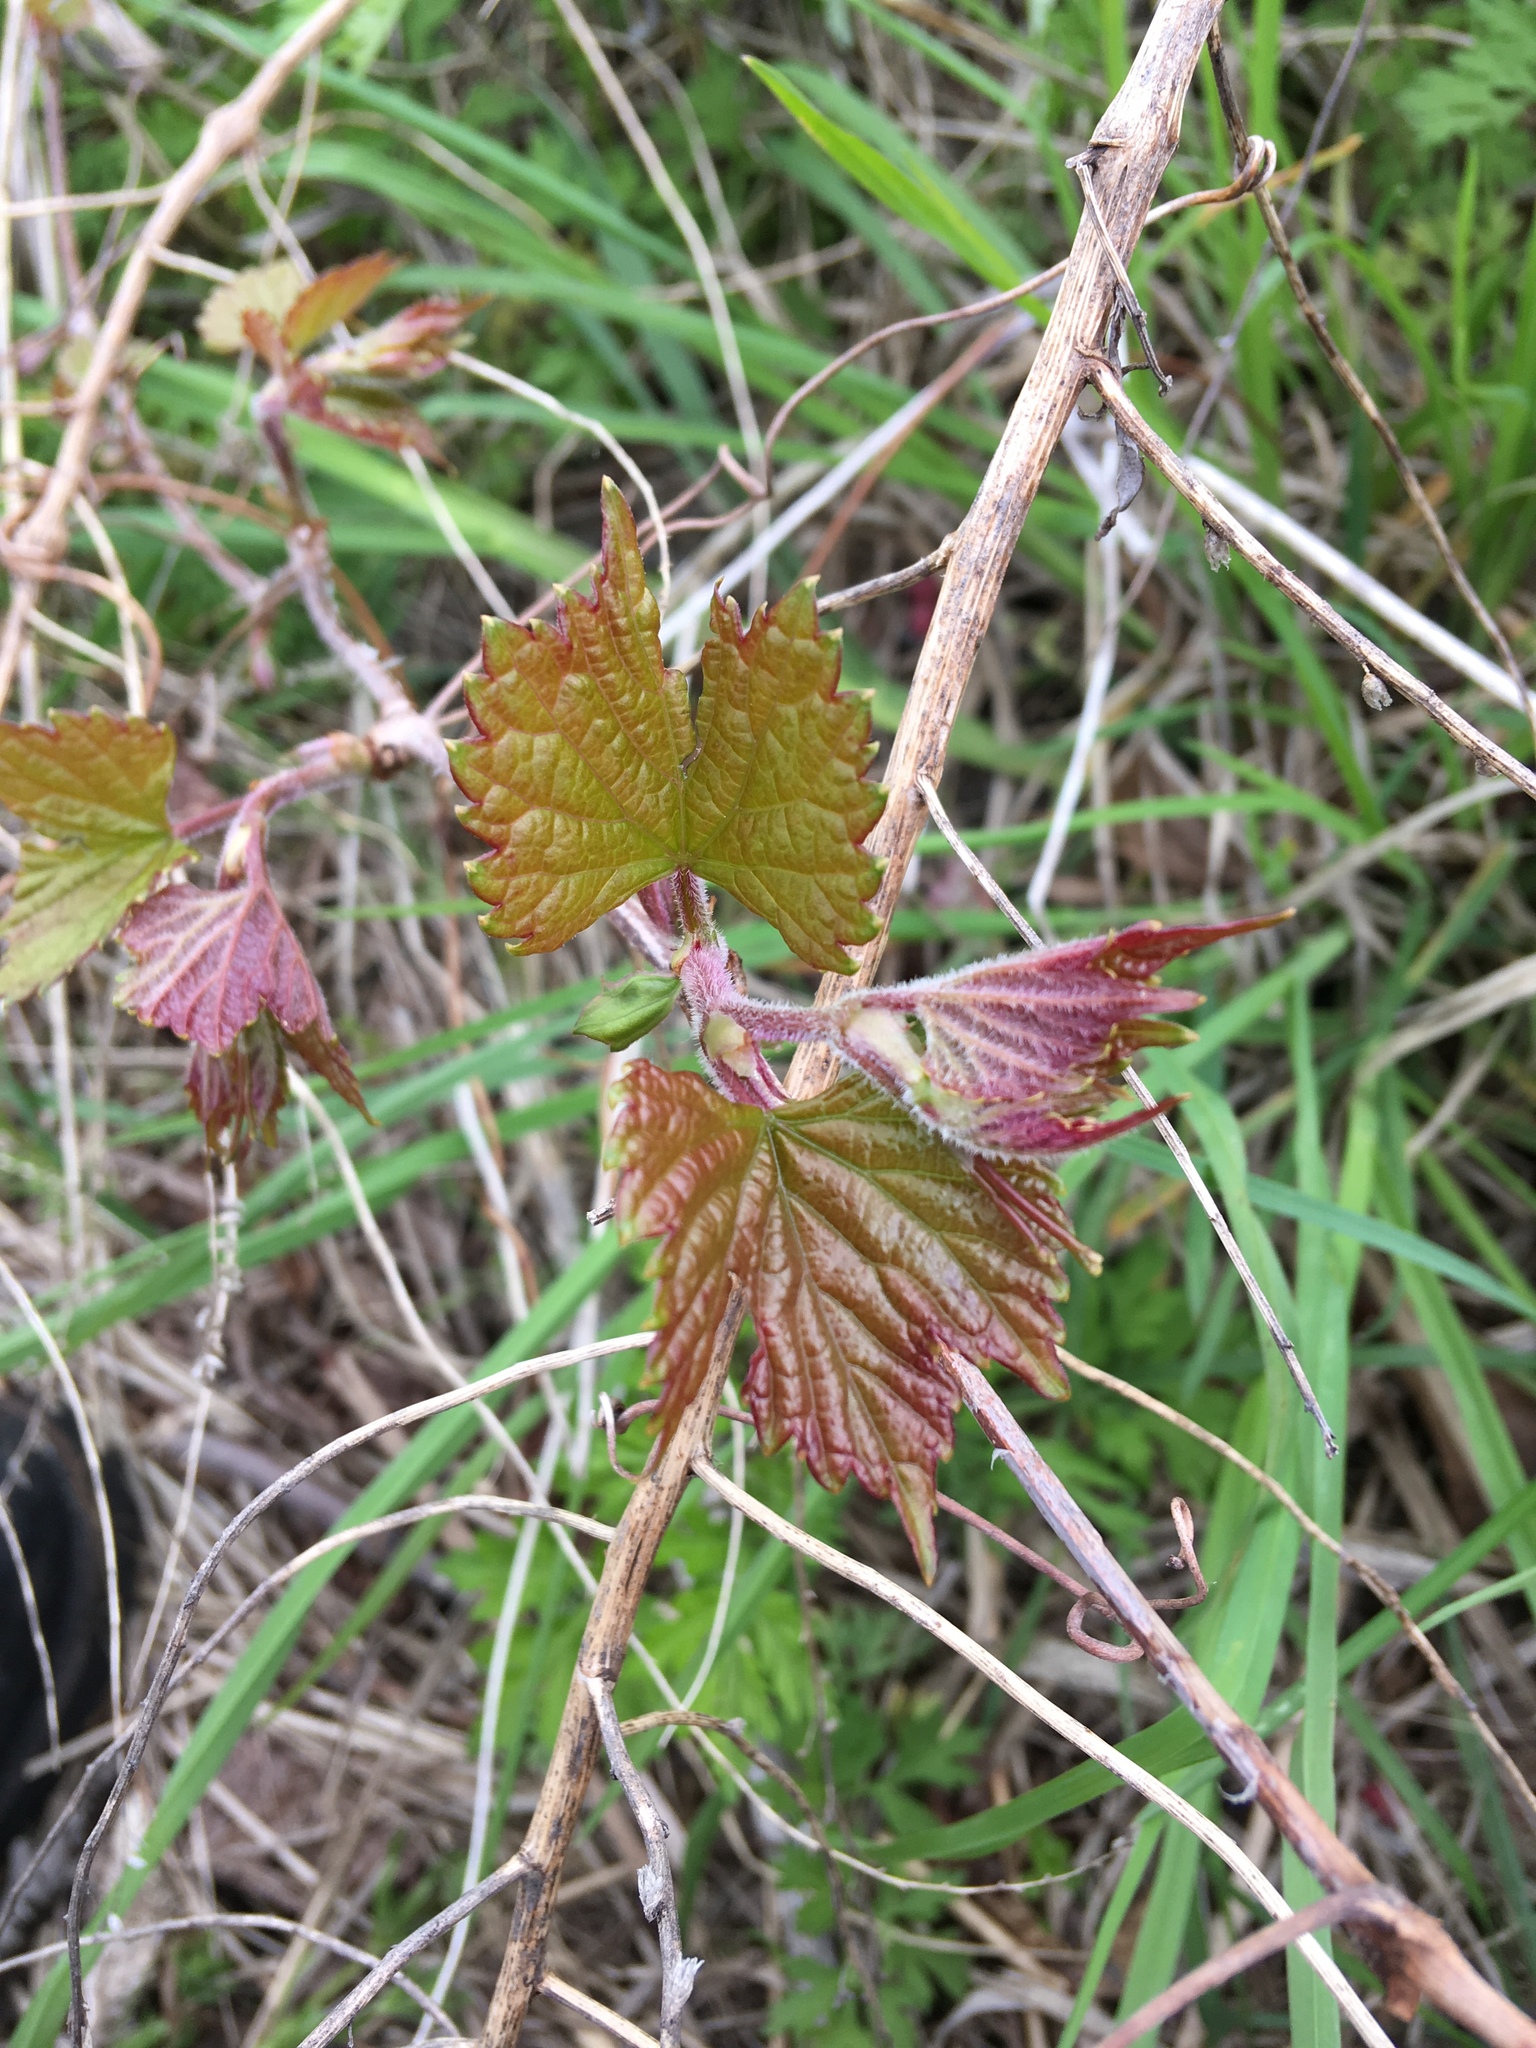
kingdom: Plantae
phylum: Tracheophyta
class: Magnoliopsida
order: Vitales
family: Vitaceae
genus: Vitis
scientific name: Vitis riparia
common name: Frost grape
